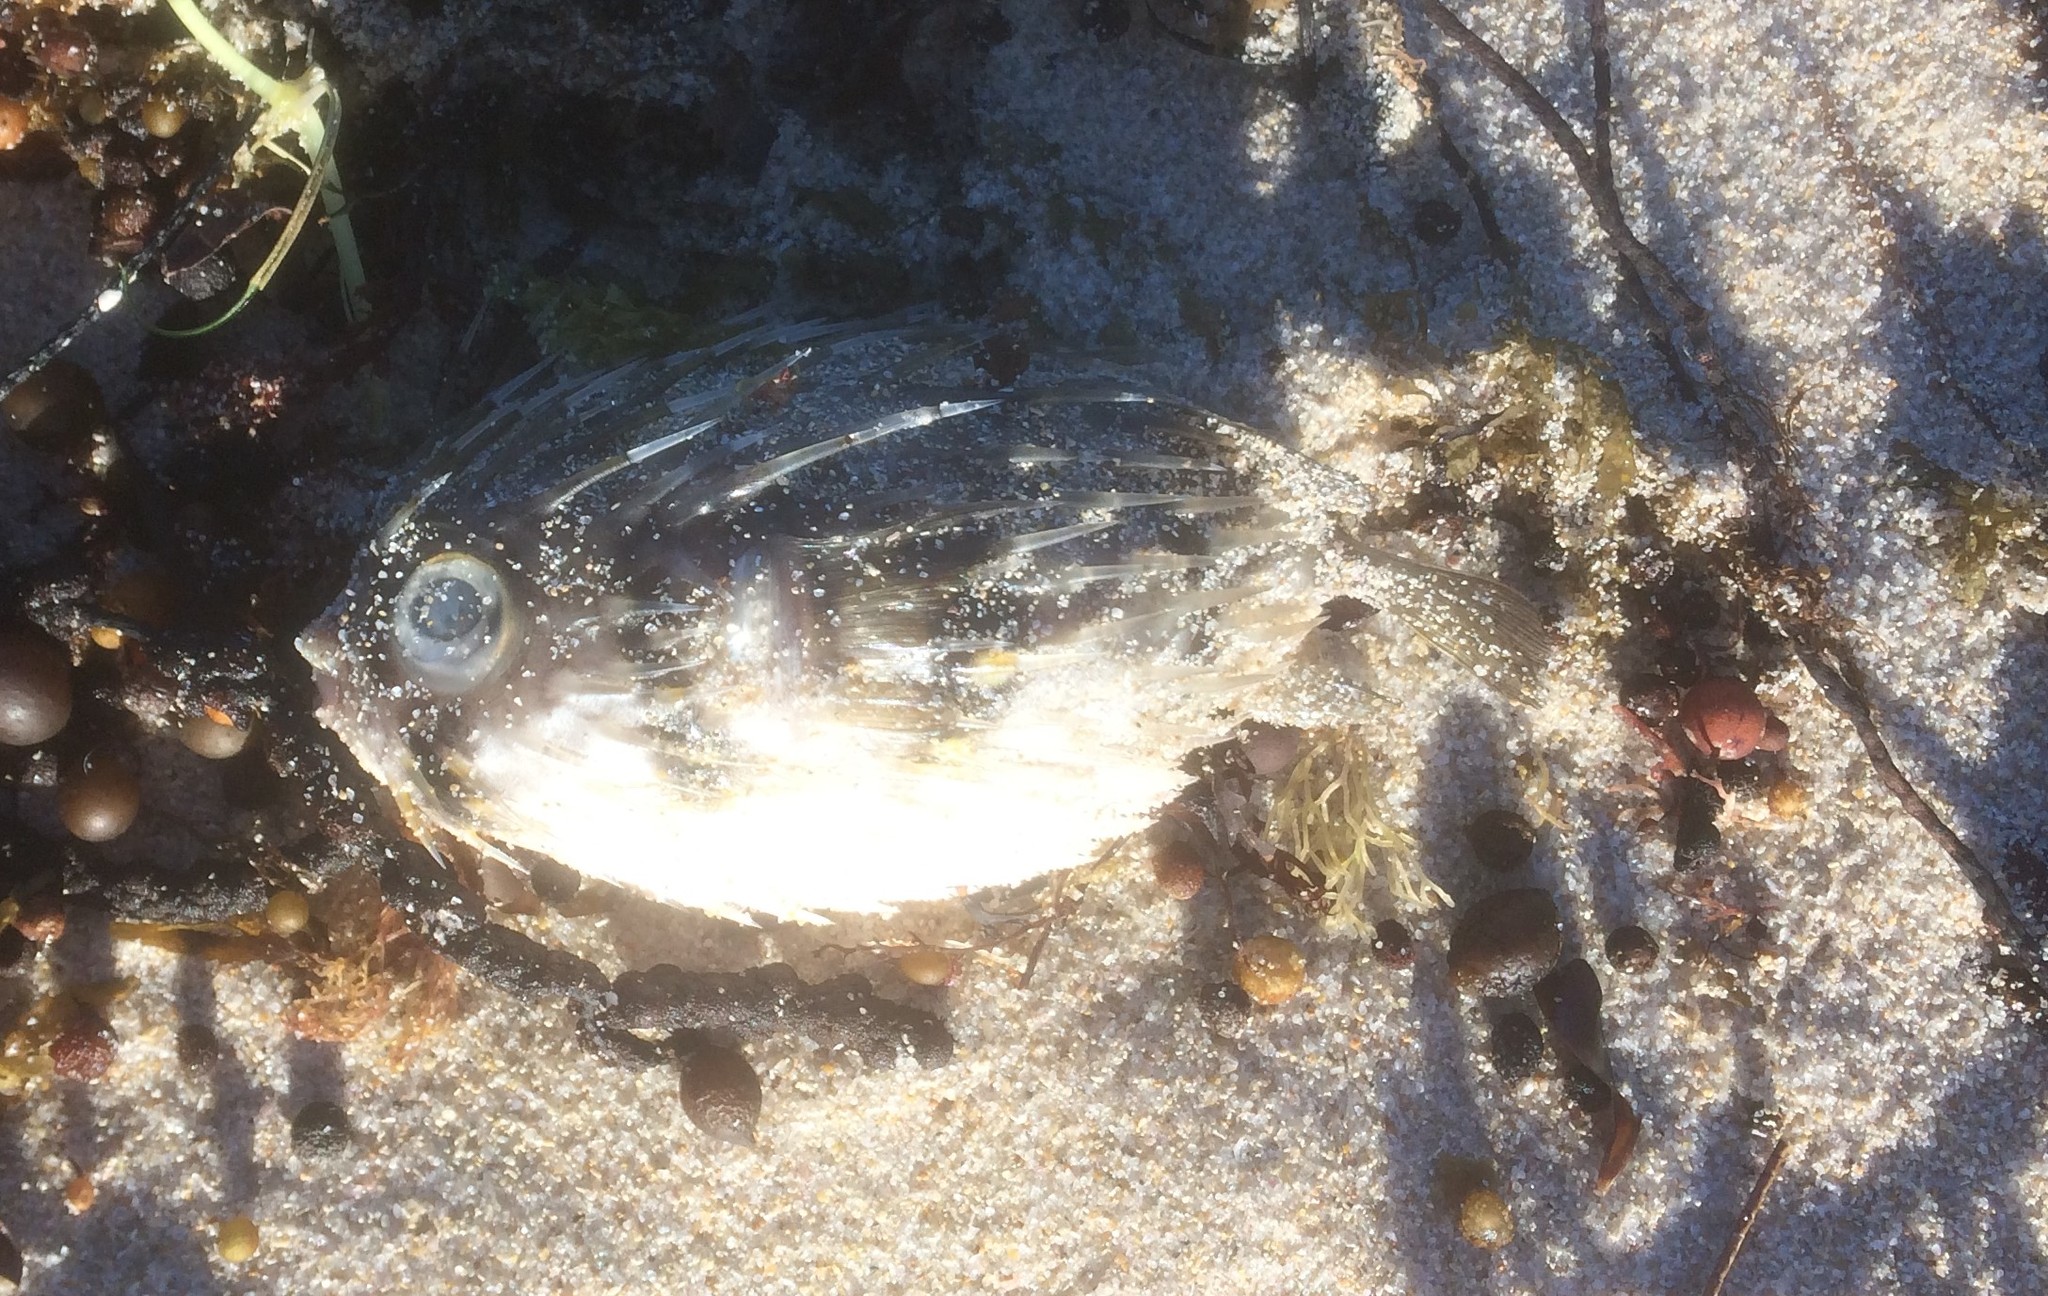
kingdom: Animalia
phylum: Chordata
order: Tetraodontiformes
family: Diodontidae
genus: Diodon
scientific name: Diodon nicthemerus
